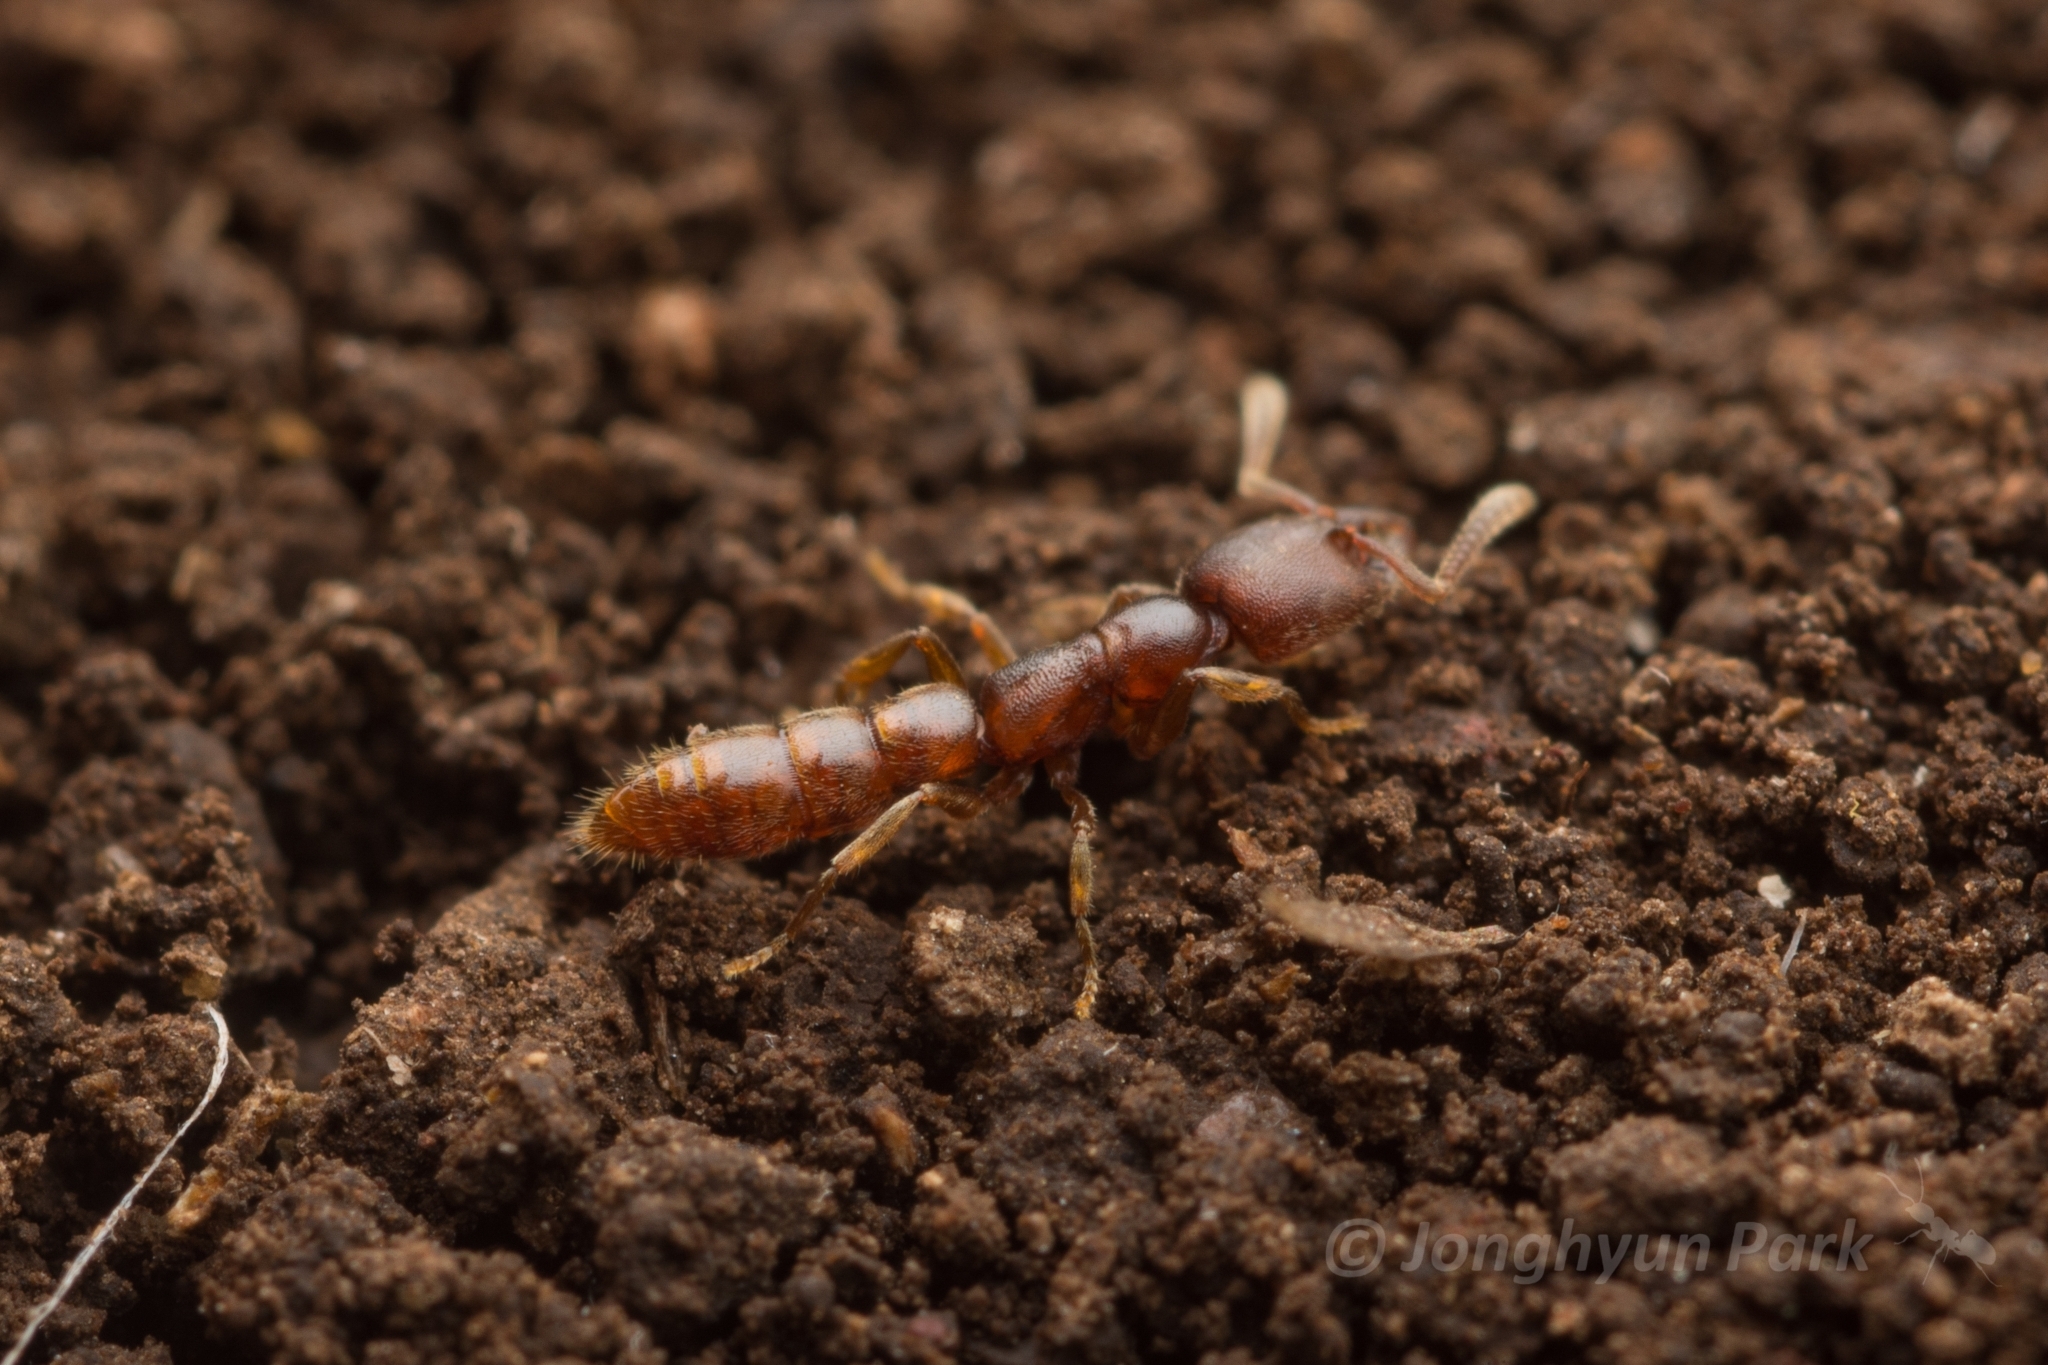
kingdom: Animalia
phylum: Arthropoda
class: Insecta
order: Hymenoptera
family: Formicidae
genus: Stigmatomma
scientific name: Stigmatomma silvestrii
